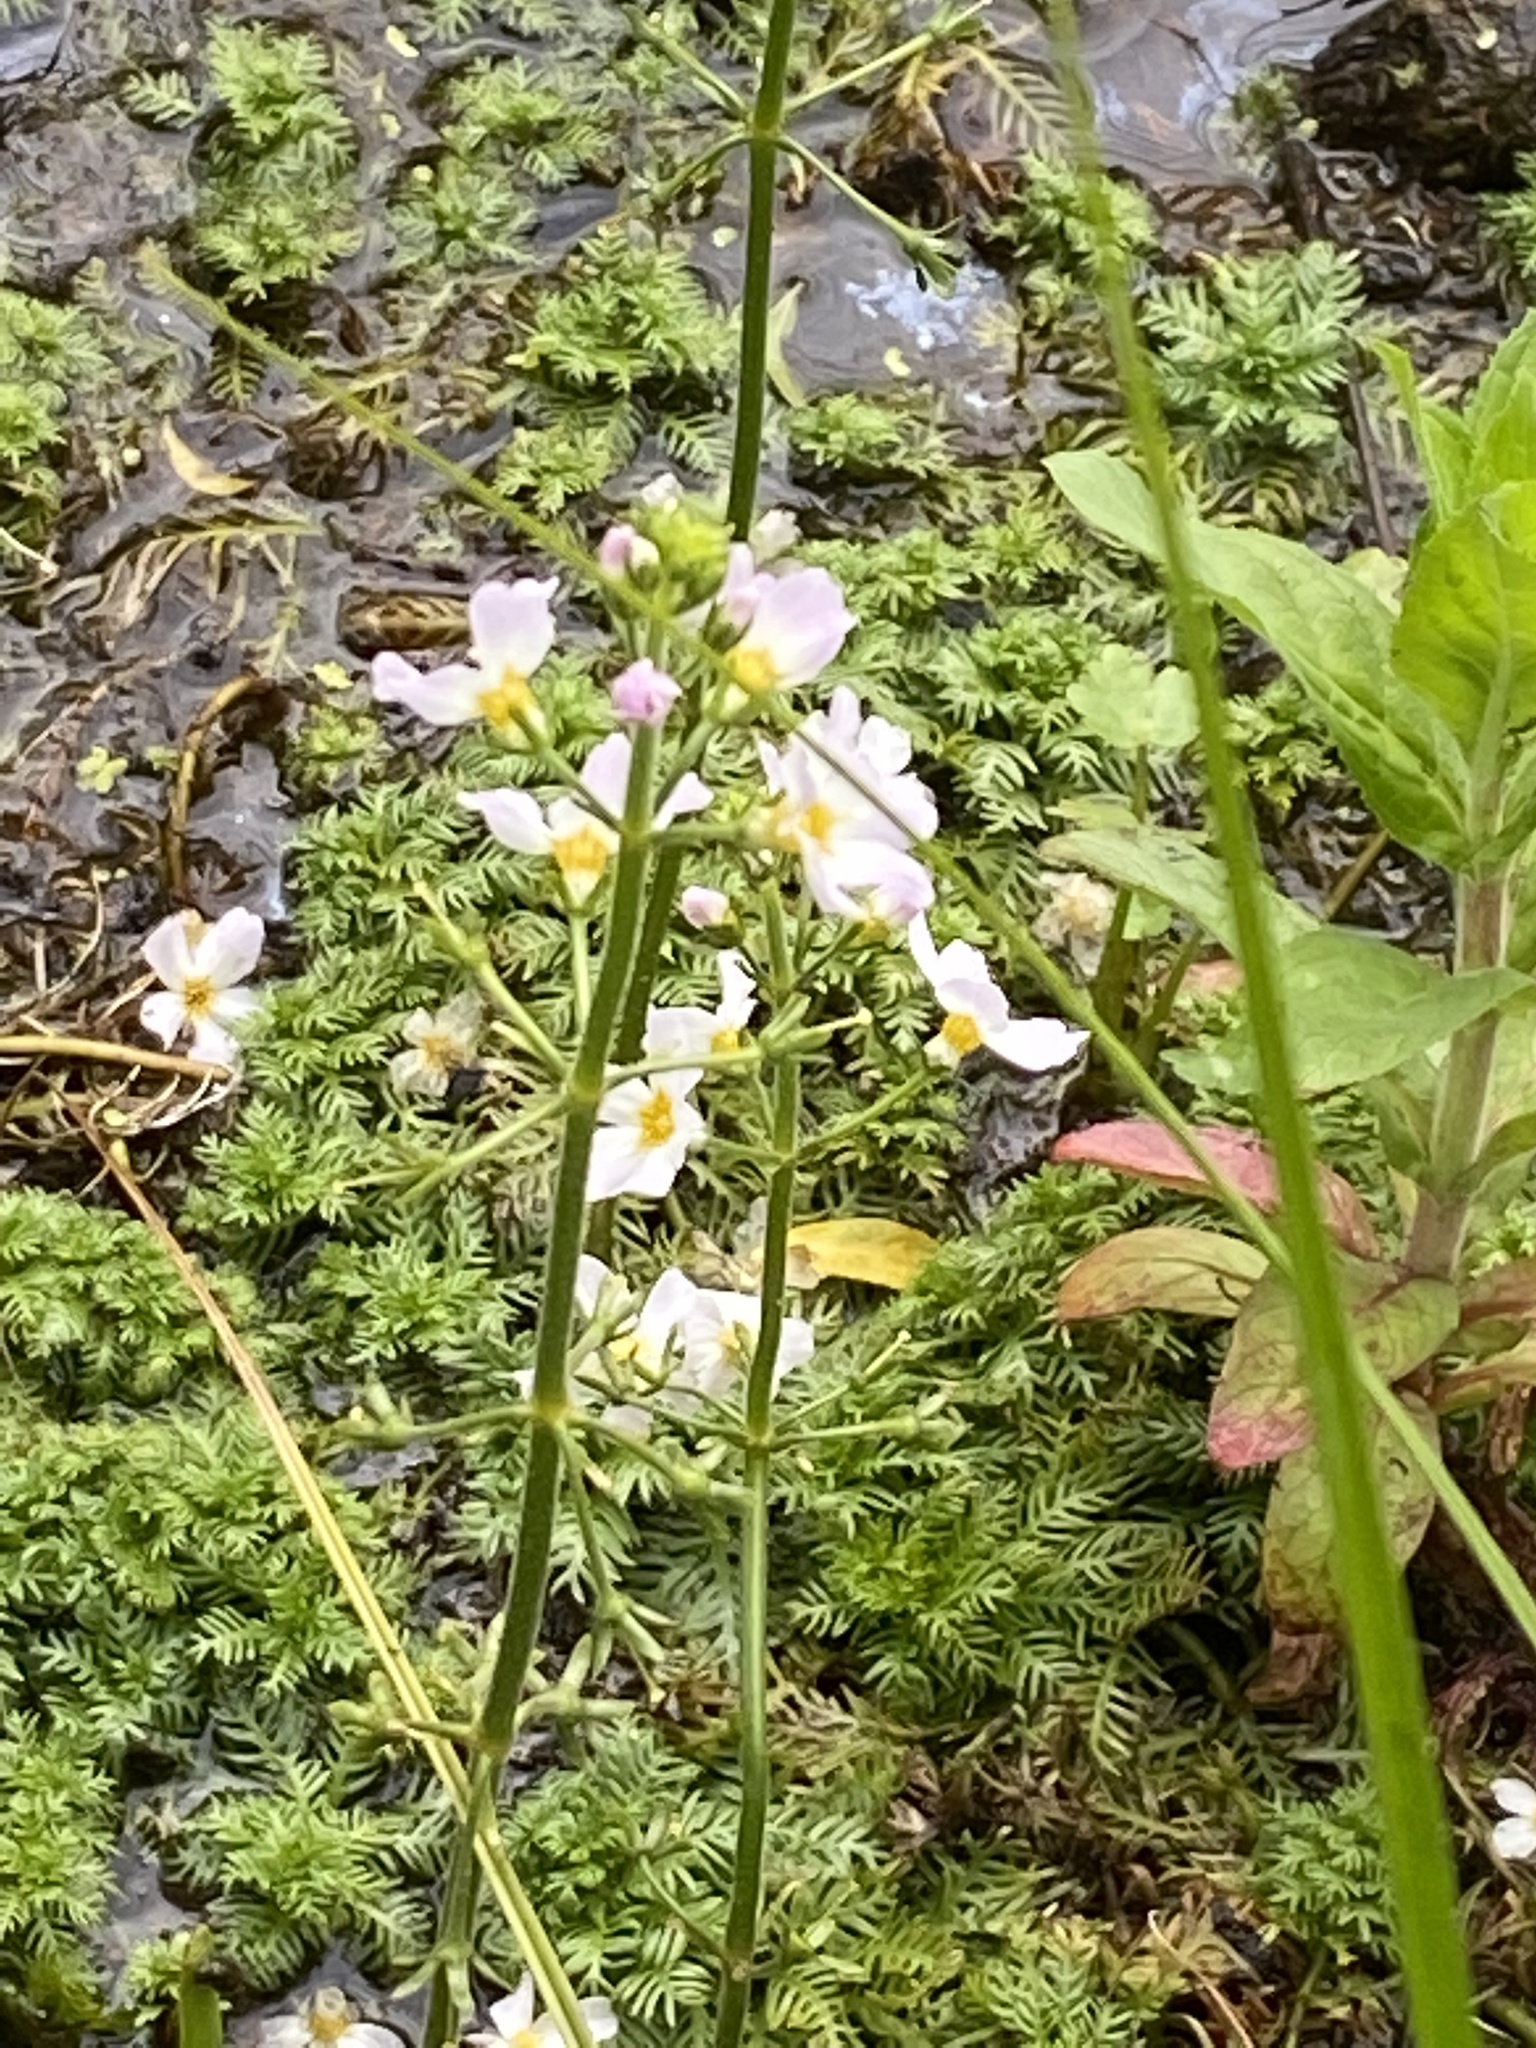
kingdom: Plantae
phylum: Tracheophyta
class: Magnoliopsida
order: Ericales
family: Primulaceae
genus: Hottonia
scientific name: Hottonia palustris
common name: Water-violet
